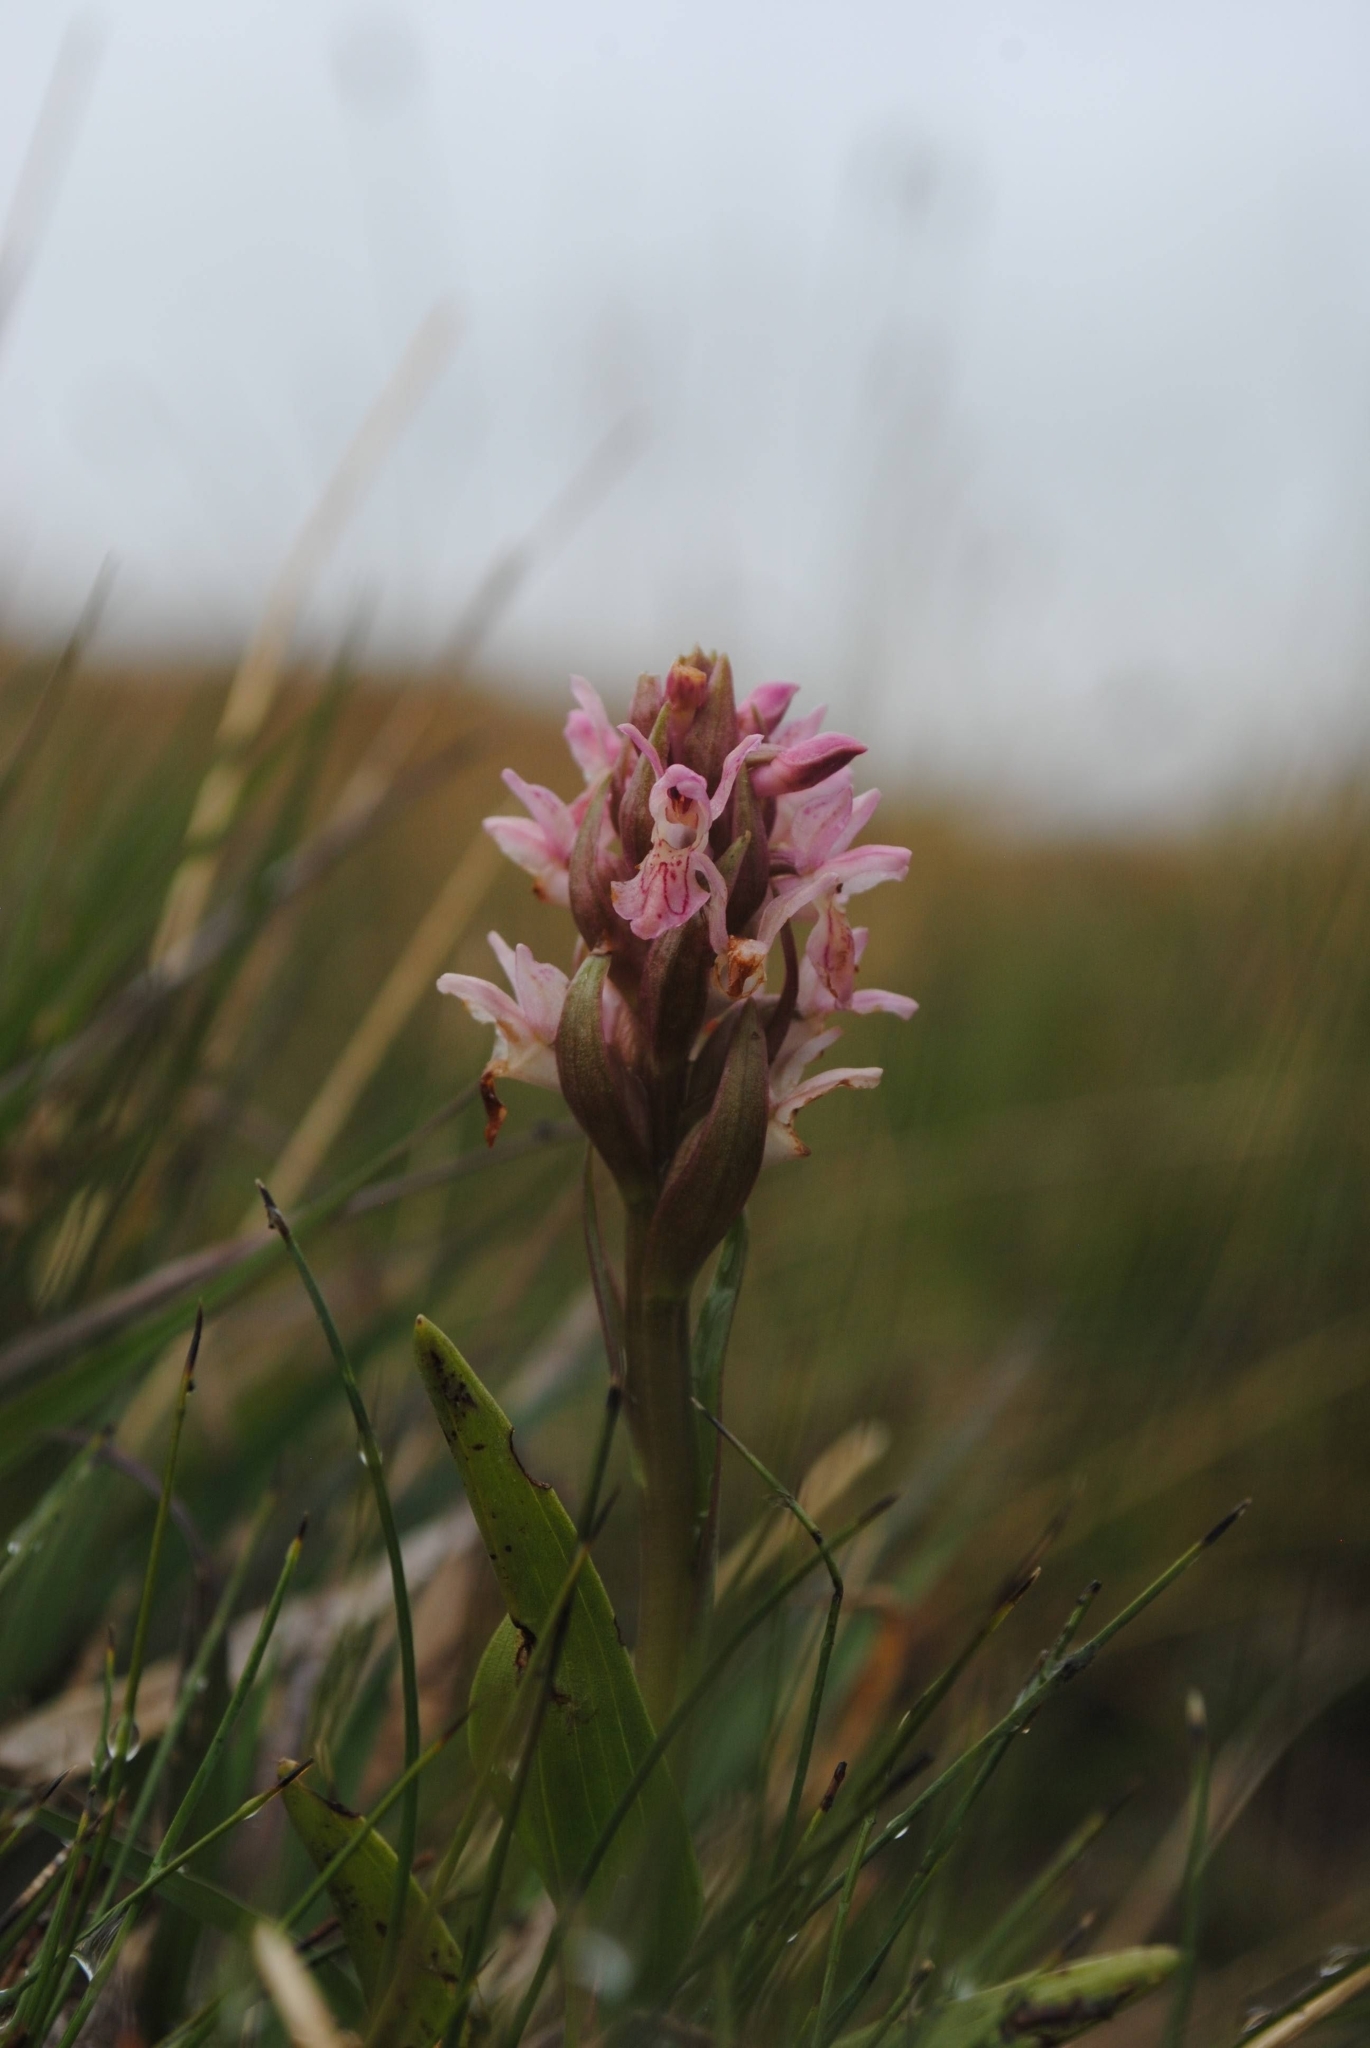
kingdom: Plantae
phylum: Tracheophyta
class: Liliopsida
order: Asparagales
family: Orchidaceae
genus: Dactylorhiza
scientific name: Dactylorhiza incarnata
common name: Early marsh-orchid
